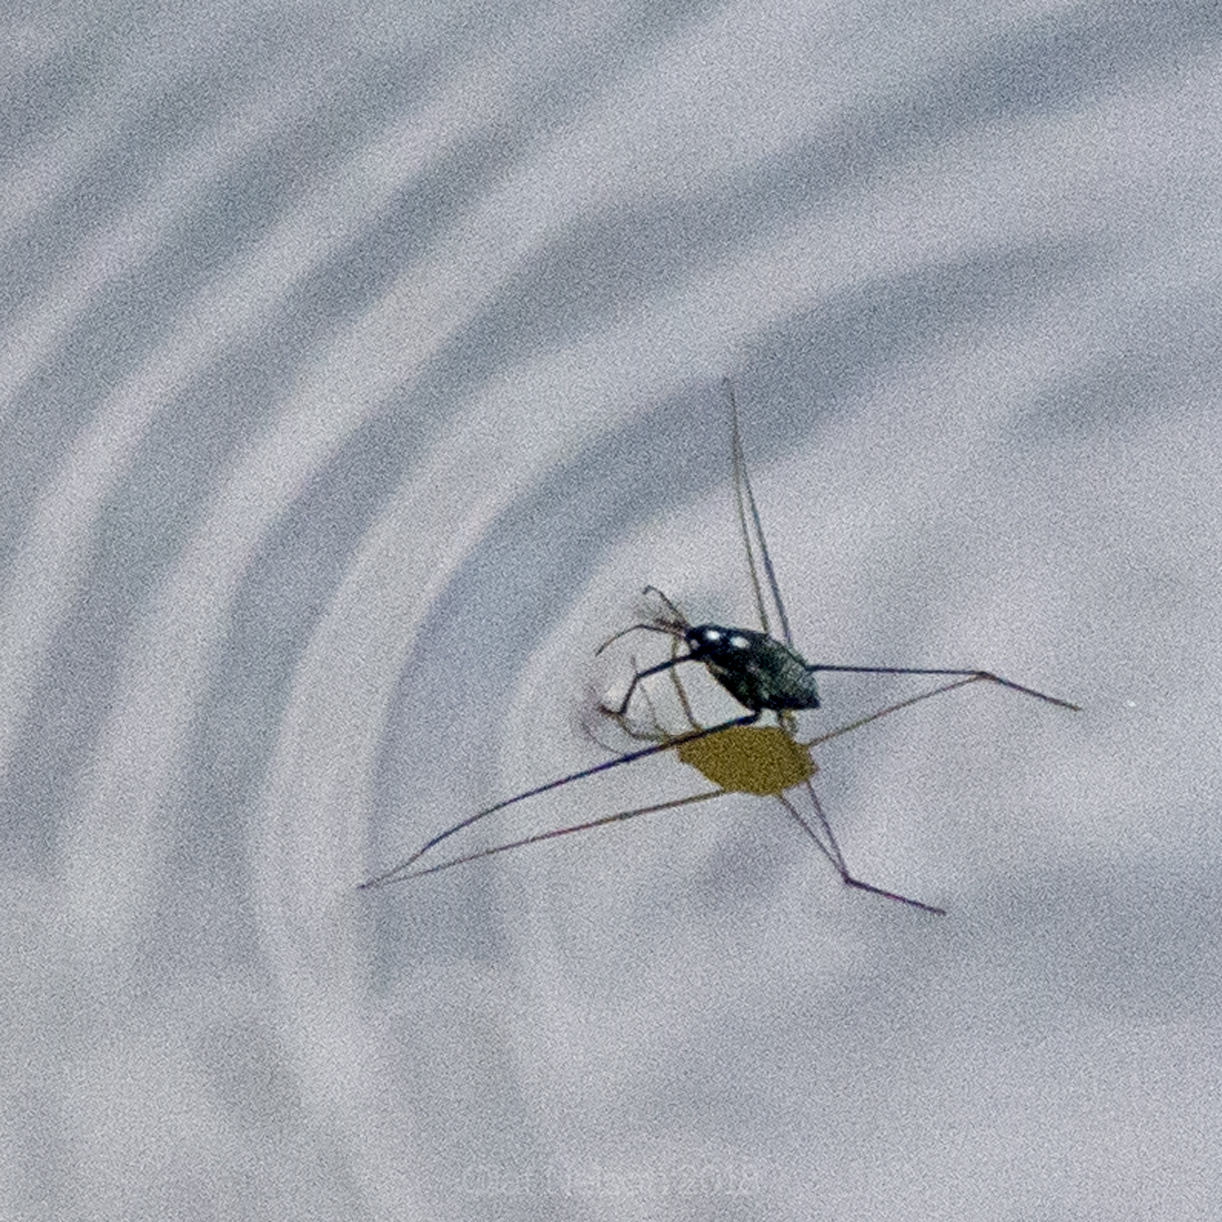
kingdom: Animalia
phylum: Arthropoda
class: Insecta
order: Hemiptera
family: Gerridae
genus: Metrobates
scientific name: Metrobates hesperius
